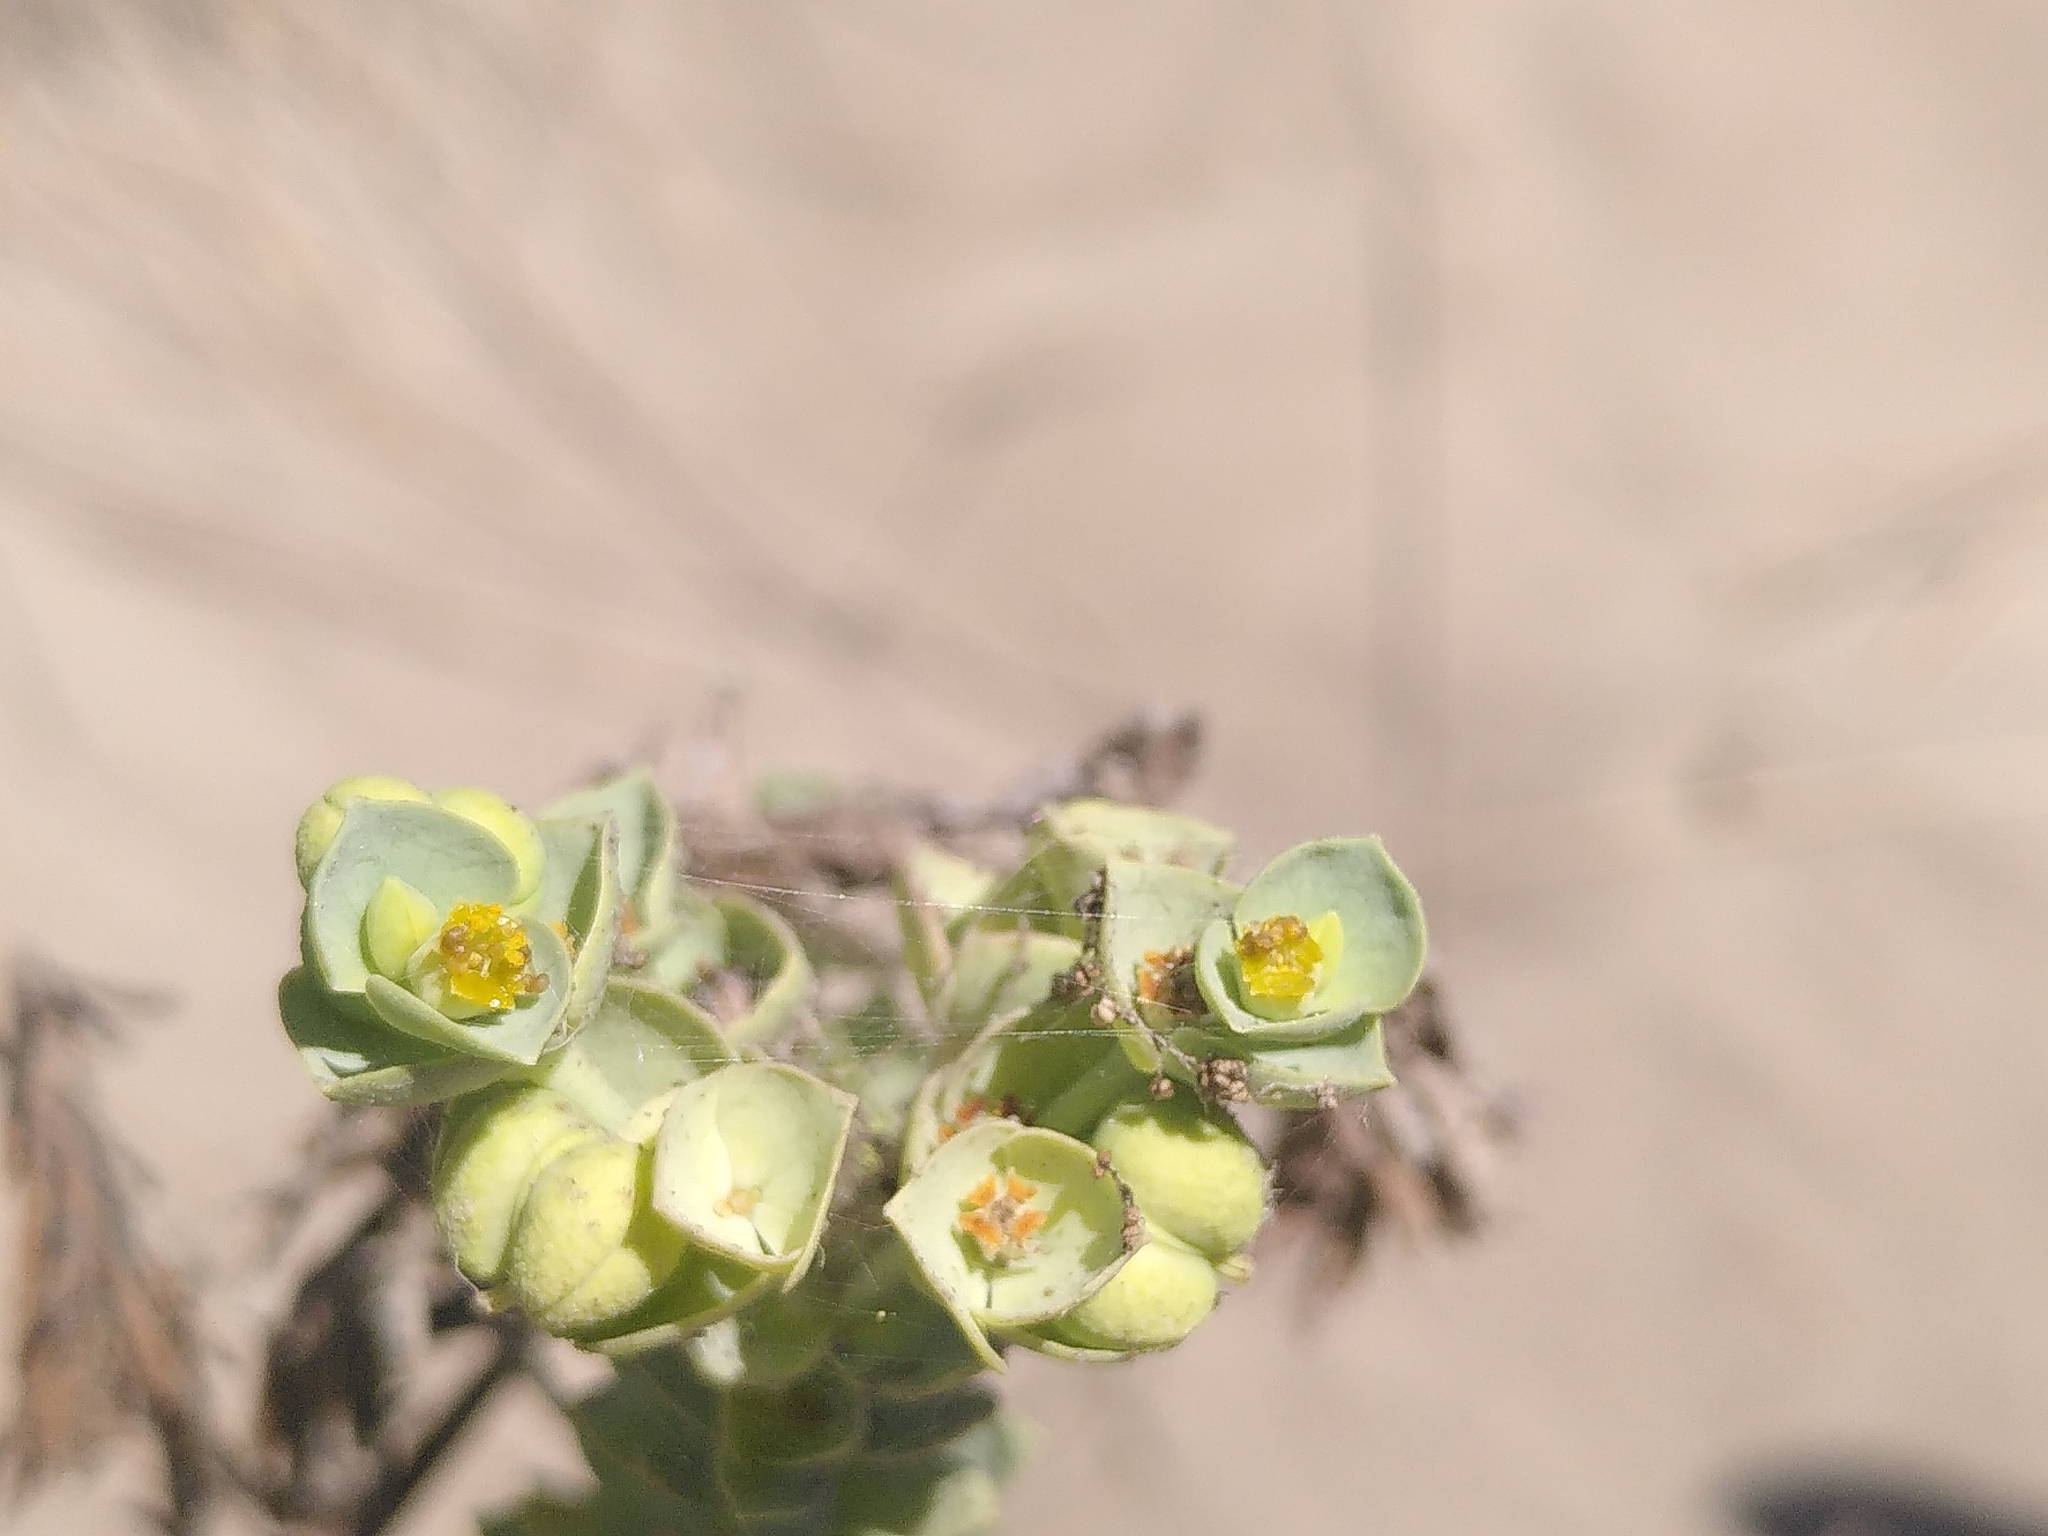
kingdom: Plantae
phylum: Tracheophyta
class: Magnoliopsida
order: Malpighiales
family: Euphorbiaceae
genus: Euphorbia
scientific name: Euphorbia paralias
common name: Sea spurge
